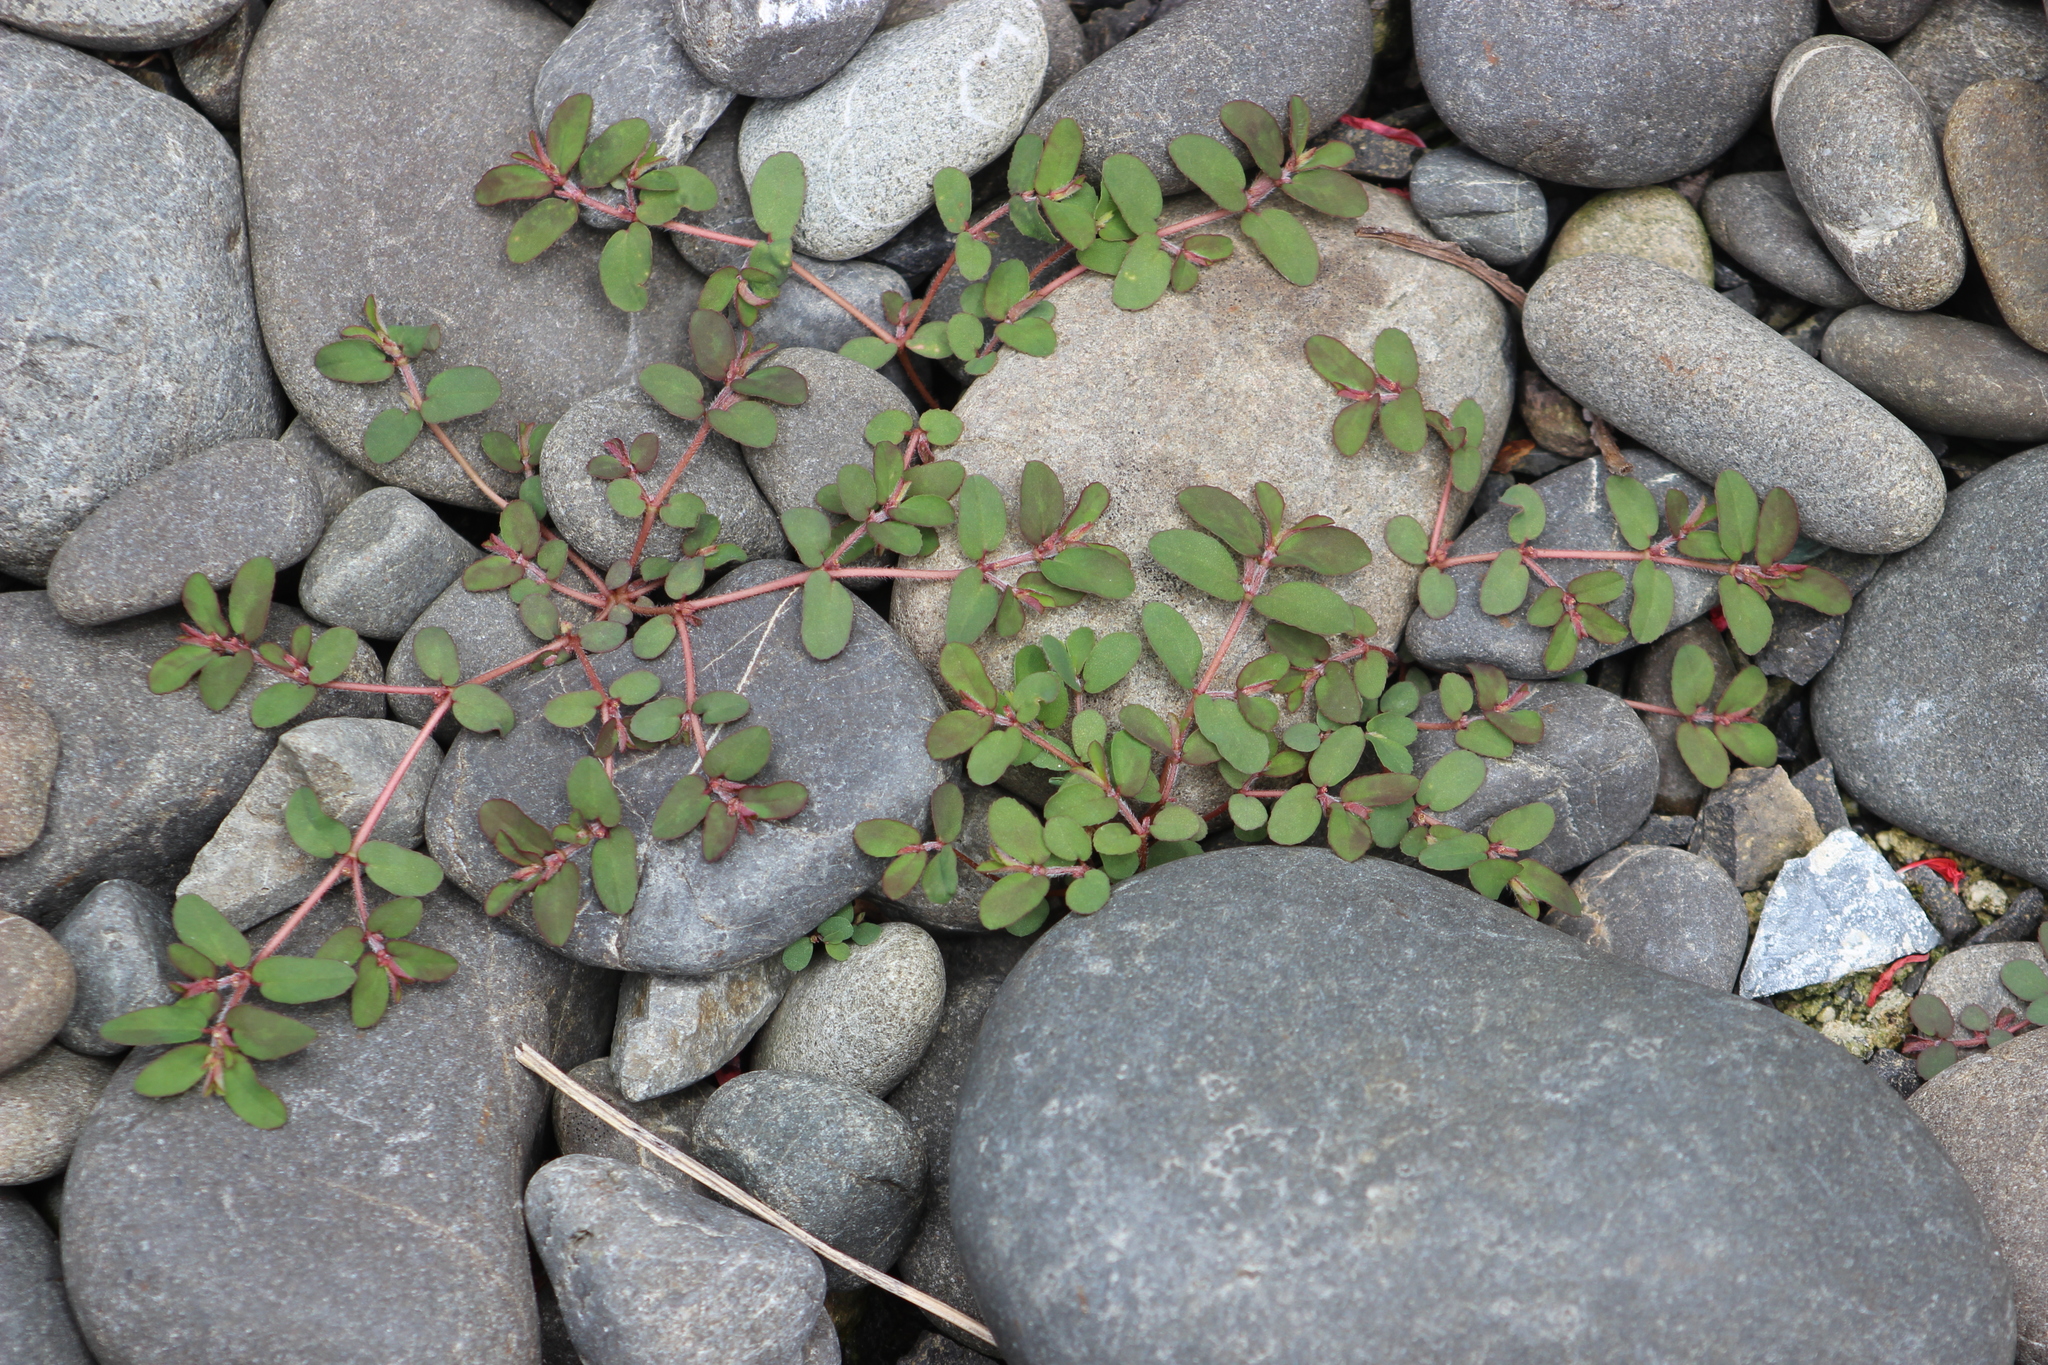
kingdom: Plantae
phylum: Tracheophyta
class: Magnoliopsida
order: Malpighiales
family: Euphorbiaceae
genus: Euphorbia
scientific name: Euphorbia maculata
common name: Spotted spurge
